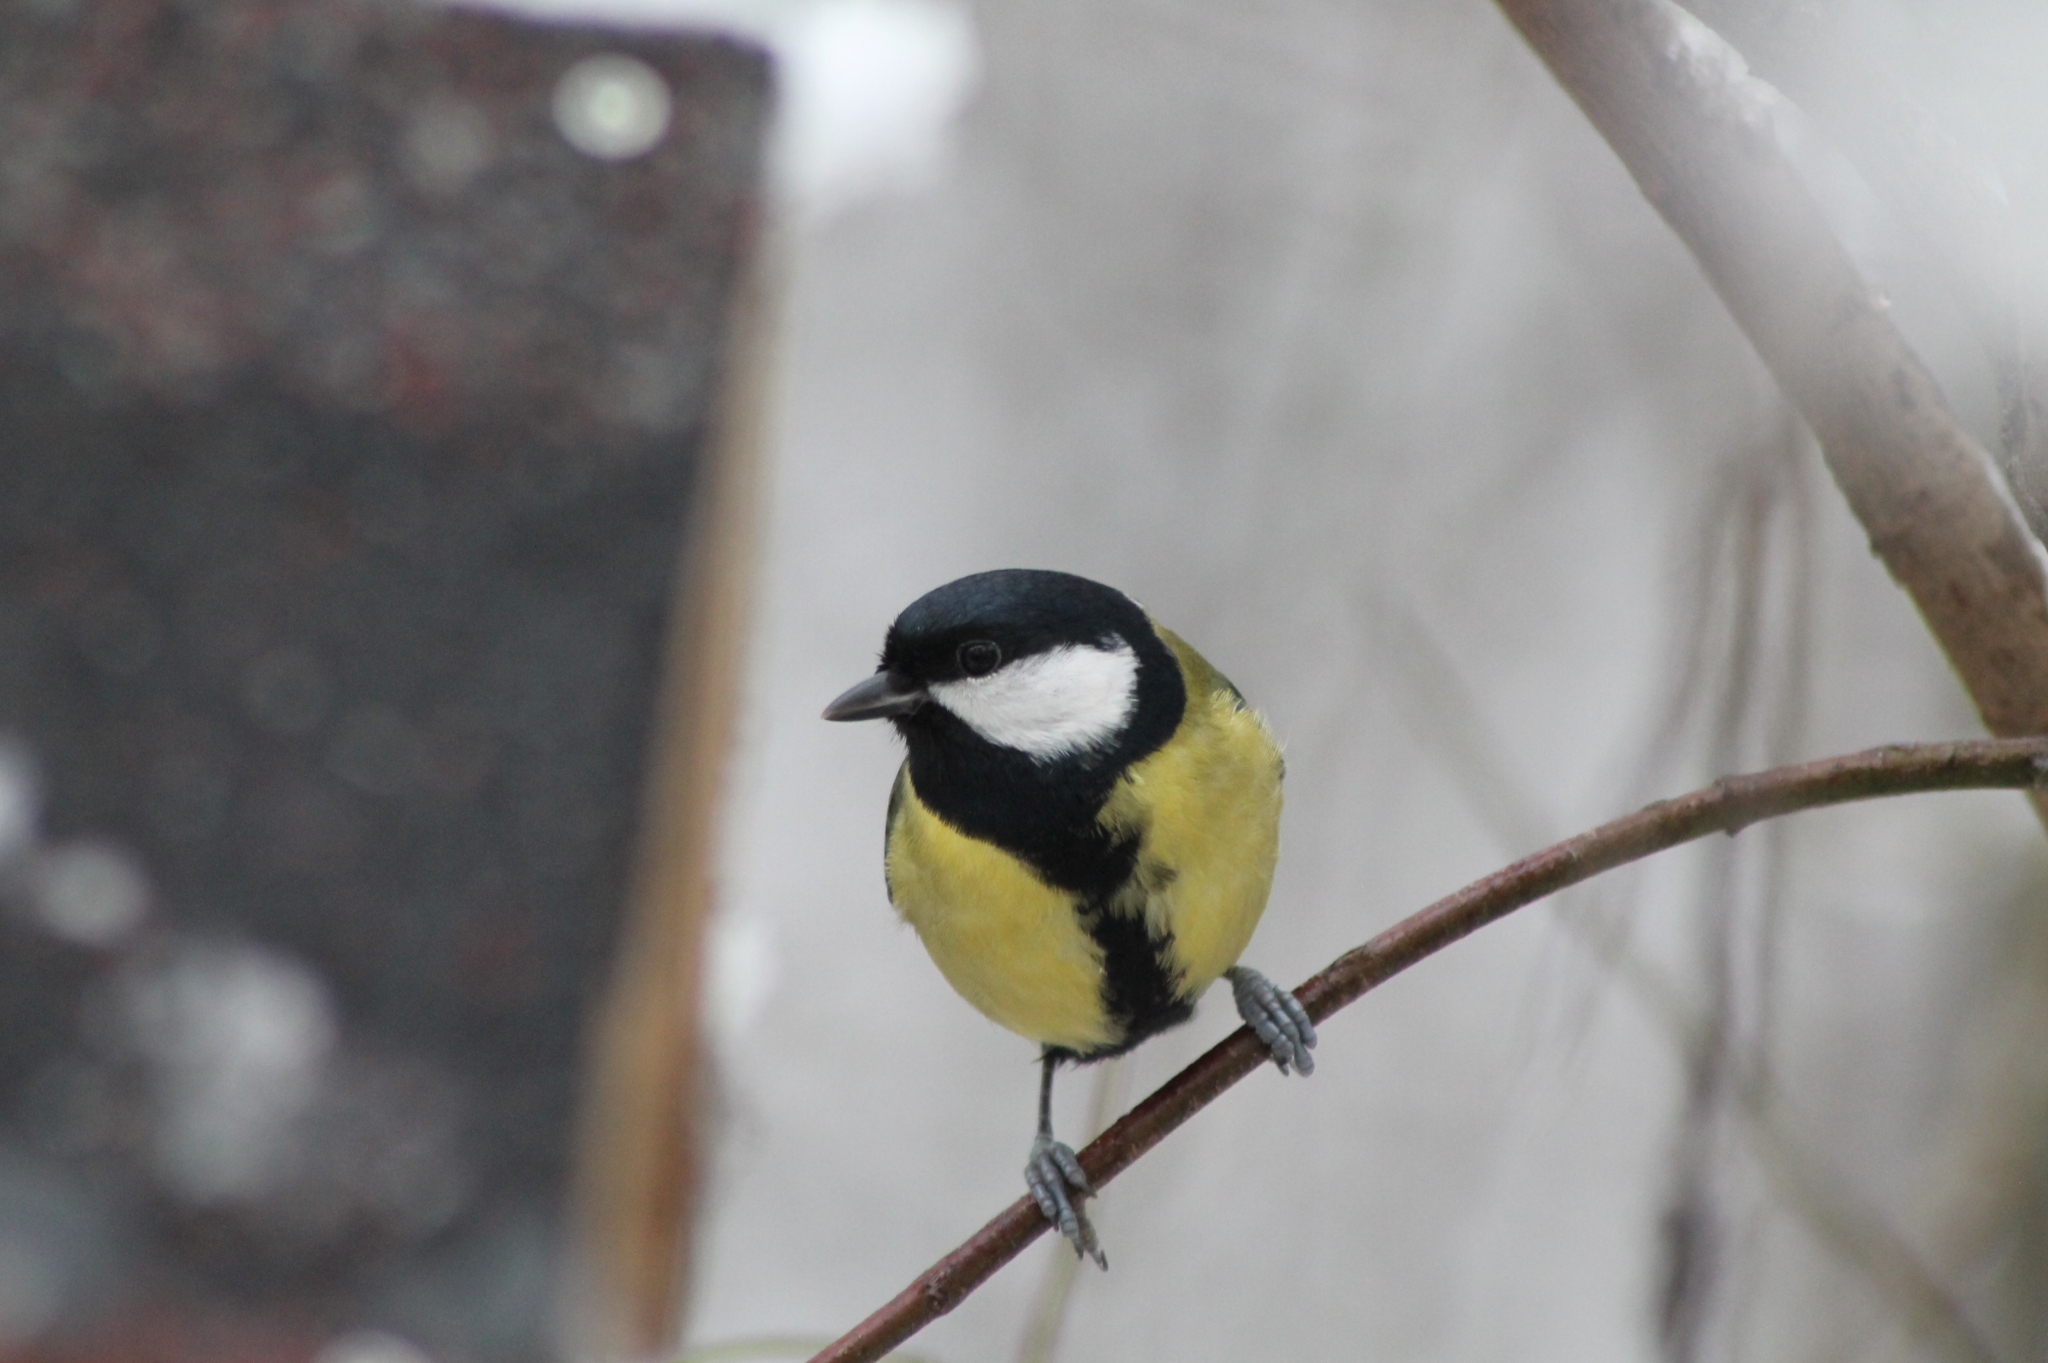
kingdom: Animalia
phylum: Chordata
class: Aves
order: Passeriformes
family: Paridae
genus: Parus
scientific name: Parus major
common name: Great tit
